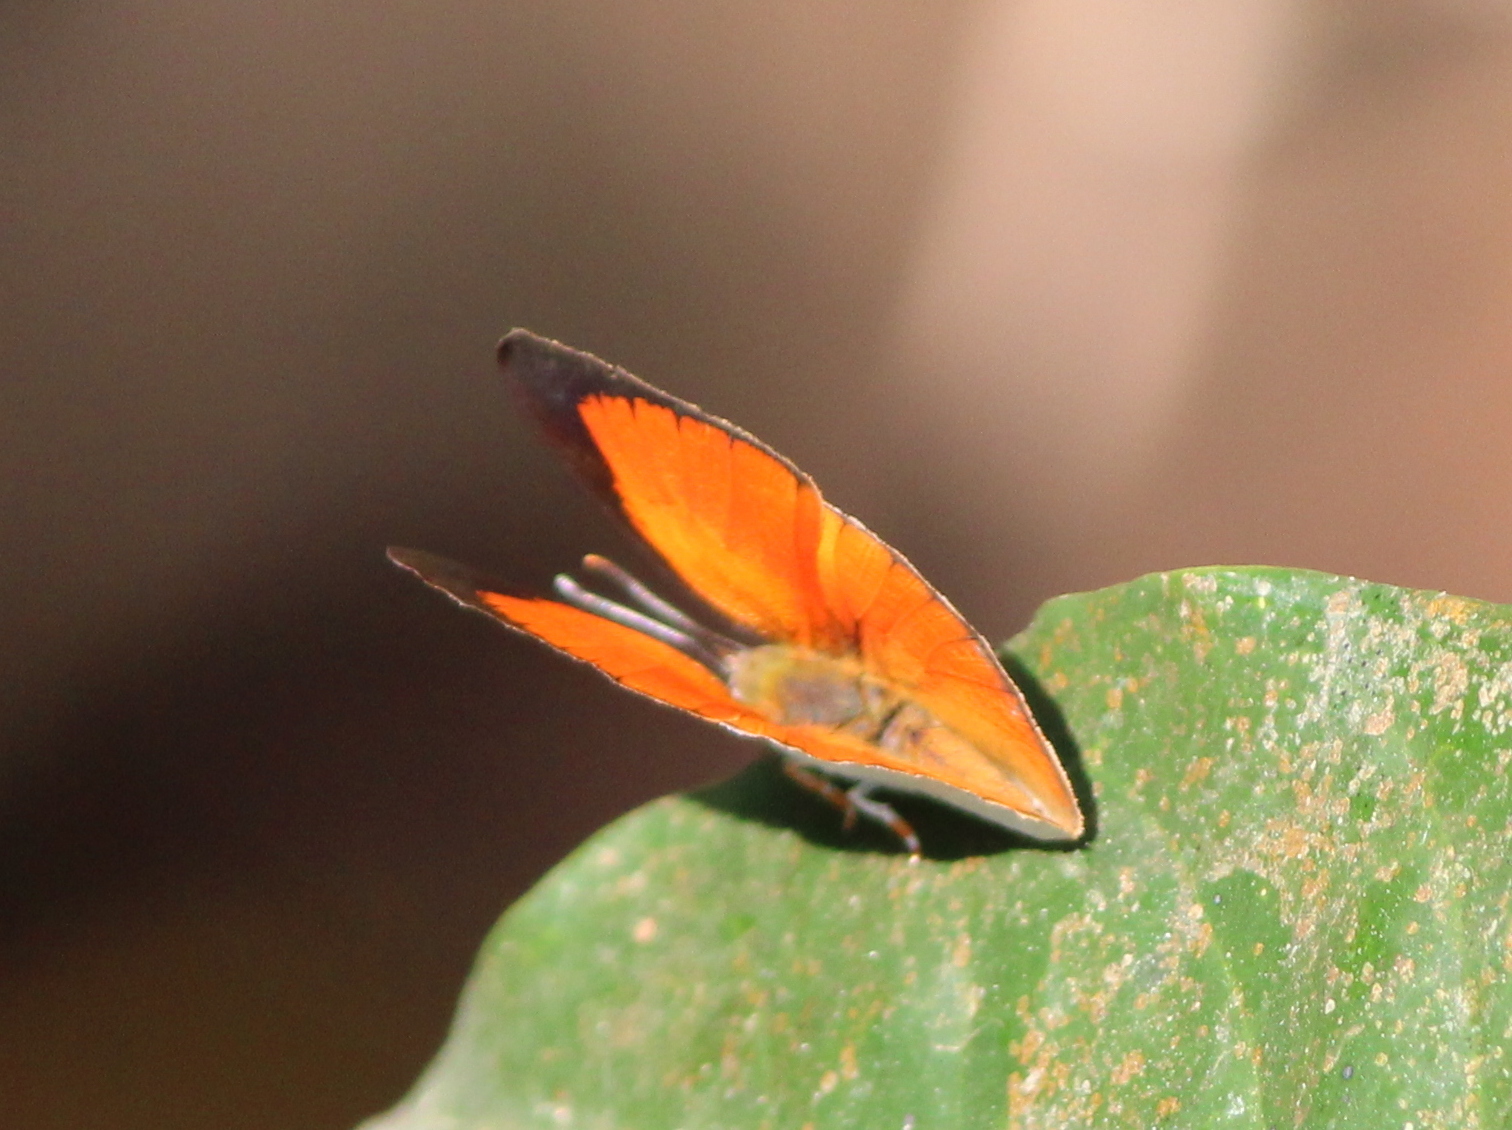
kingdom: Animalia
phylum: Arthropoda
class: Insecta
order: Lepidoptera
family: Lycaenidae
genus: Curetis
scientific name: Curetis thetis
